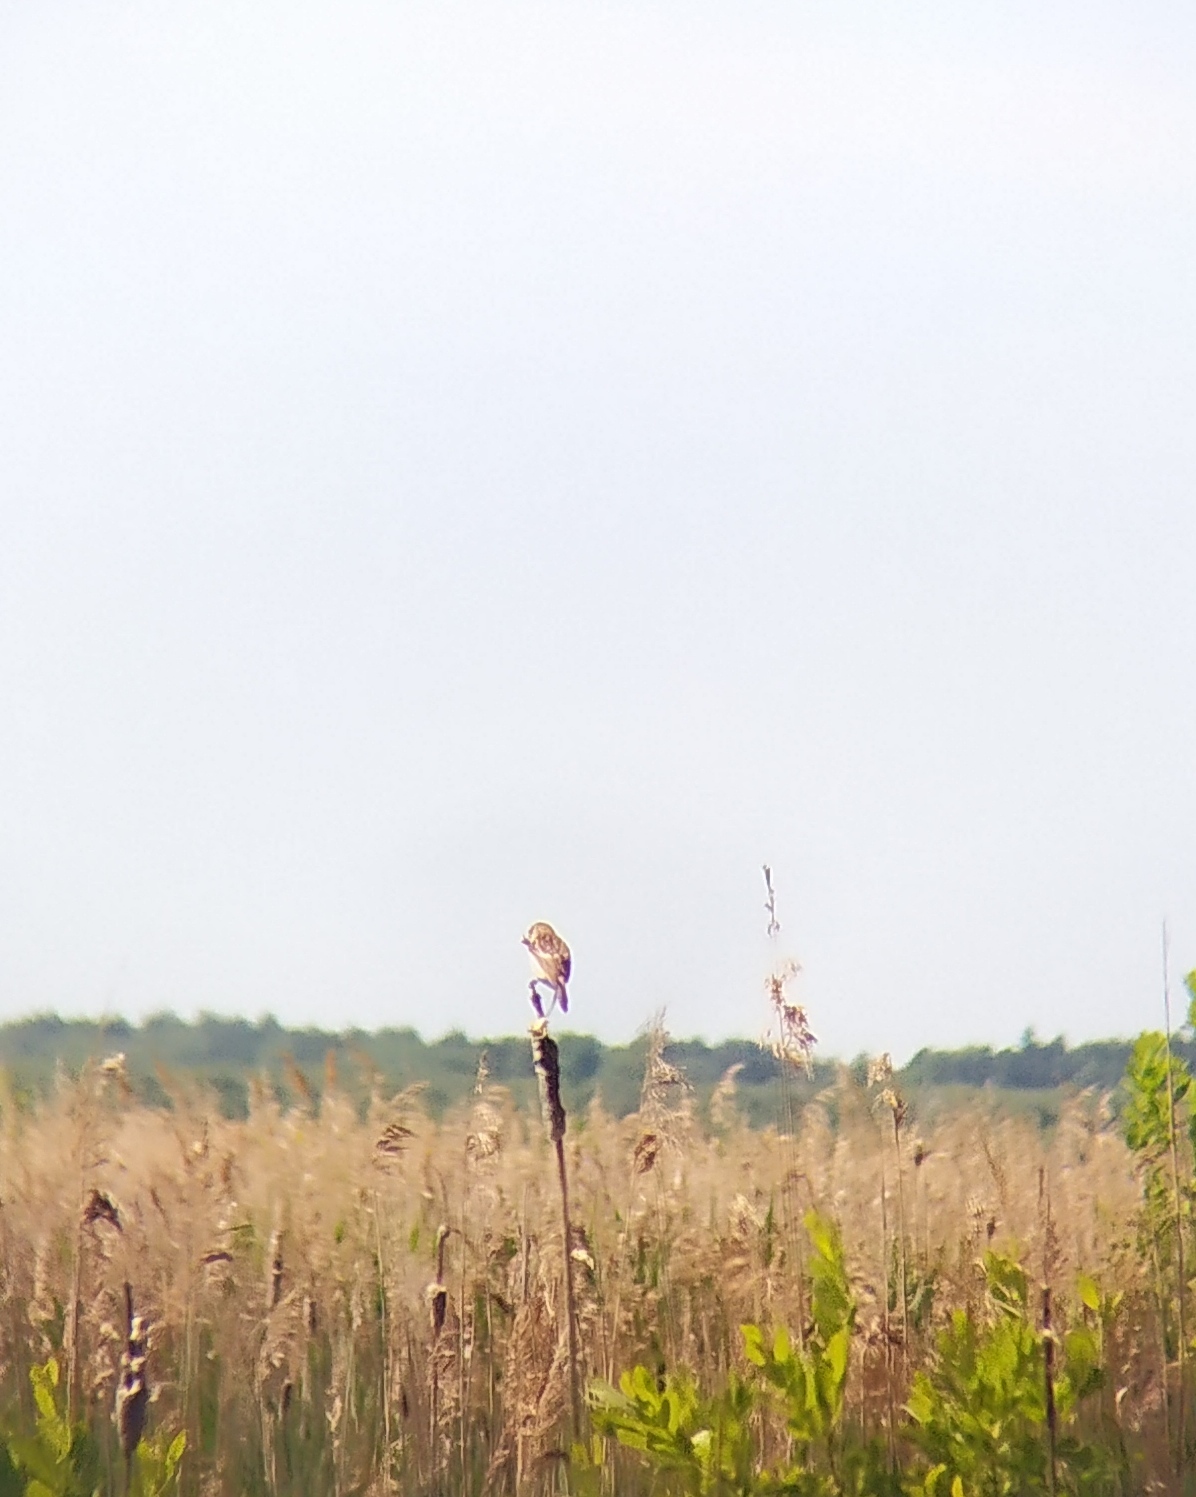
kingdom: Animalia
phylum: Chordata
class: Aves
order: Passeriformes
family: Muscicapidae
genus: Saxicola
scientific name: Saxicola maurus
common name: Siberian stonechat
